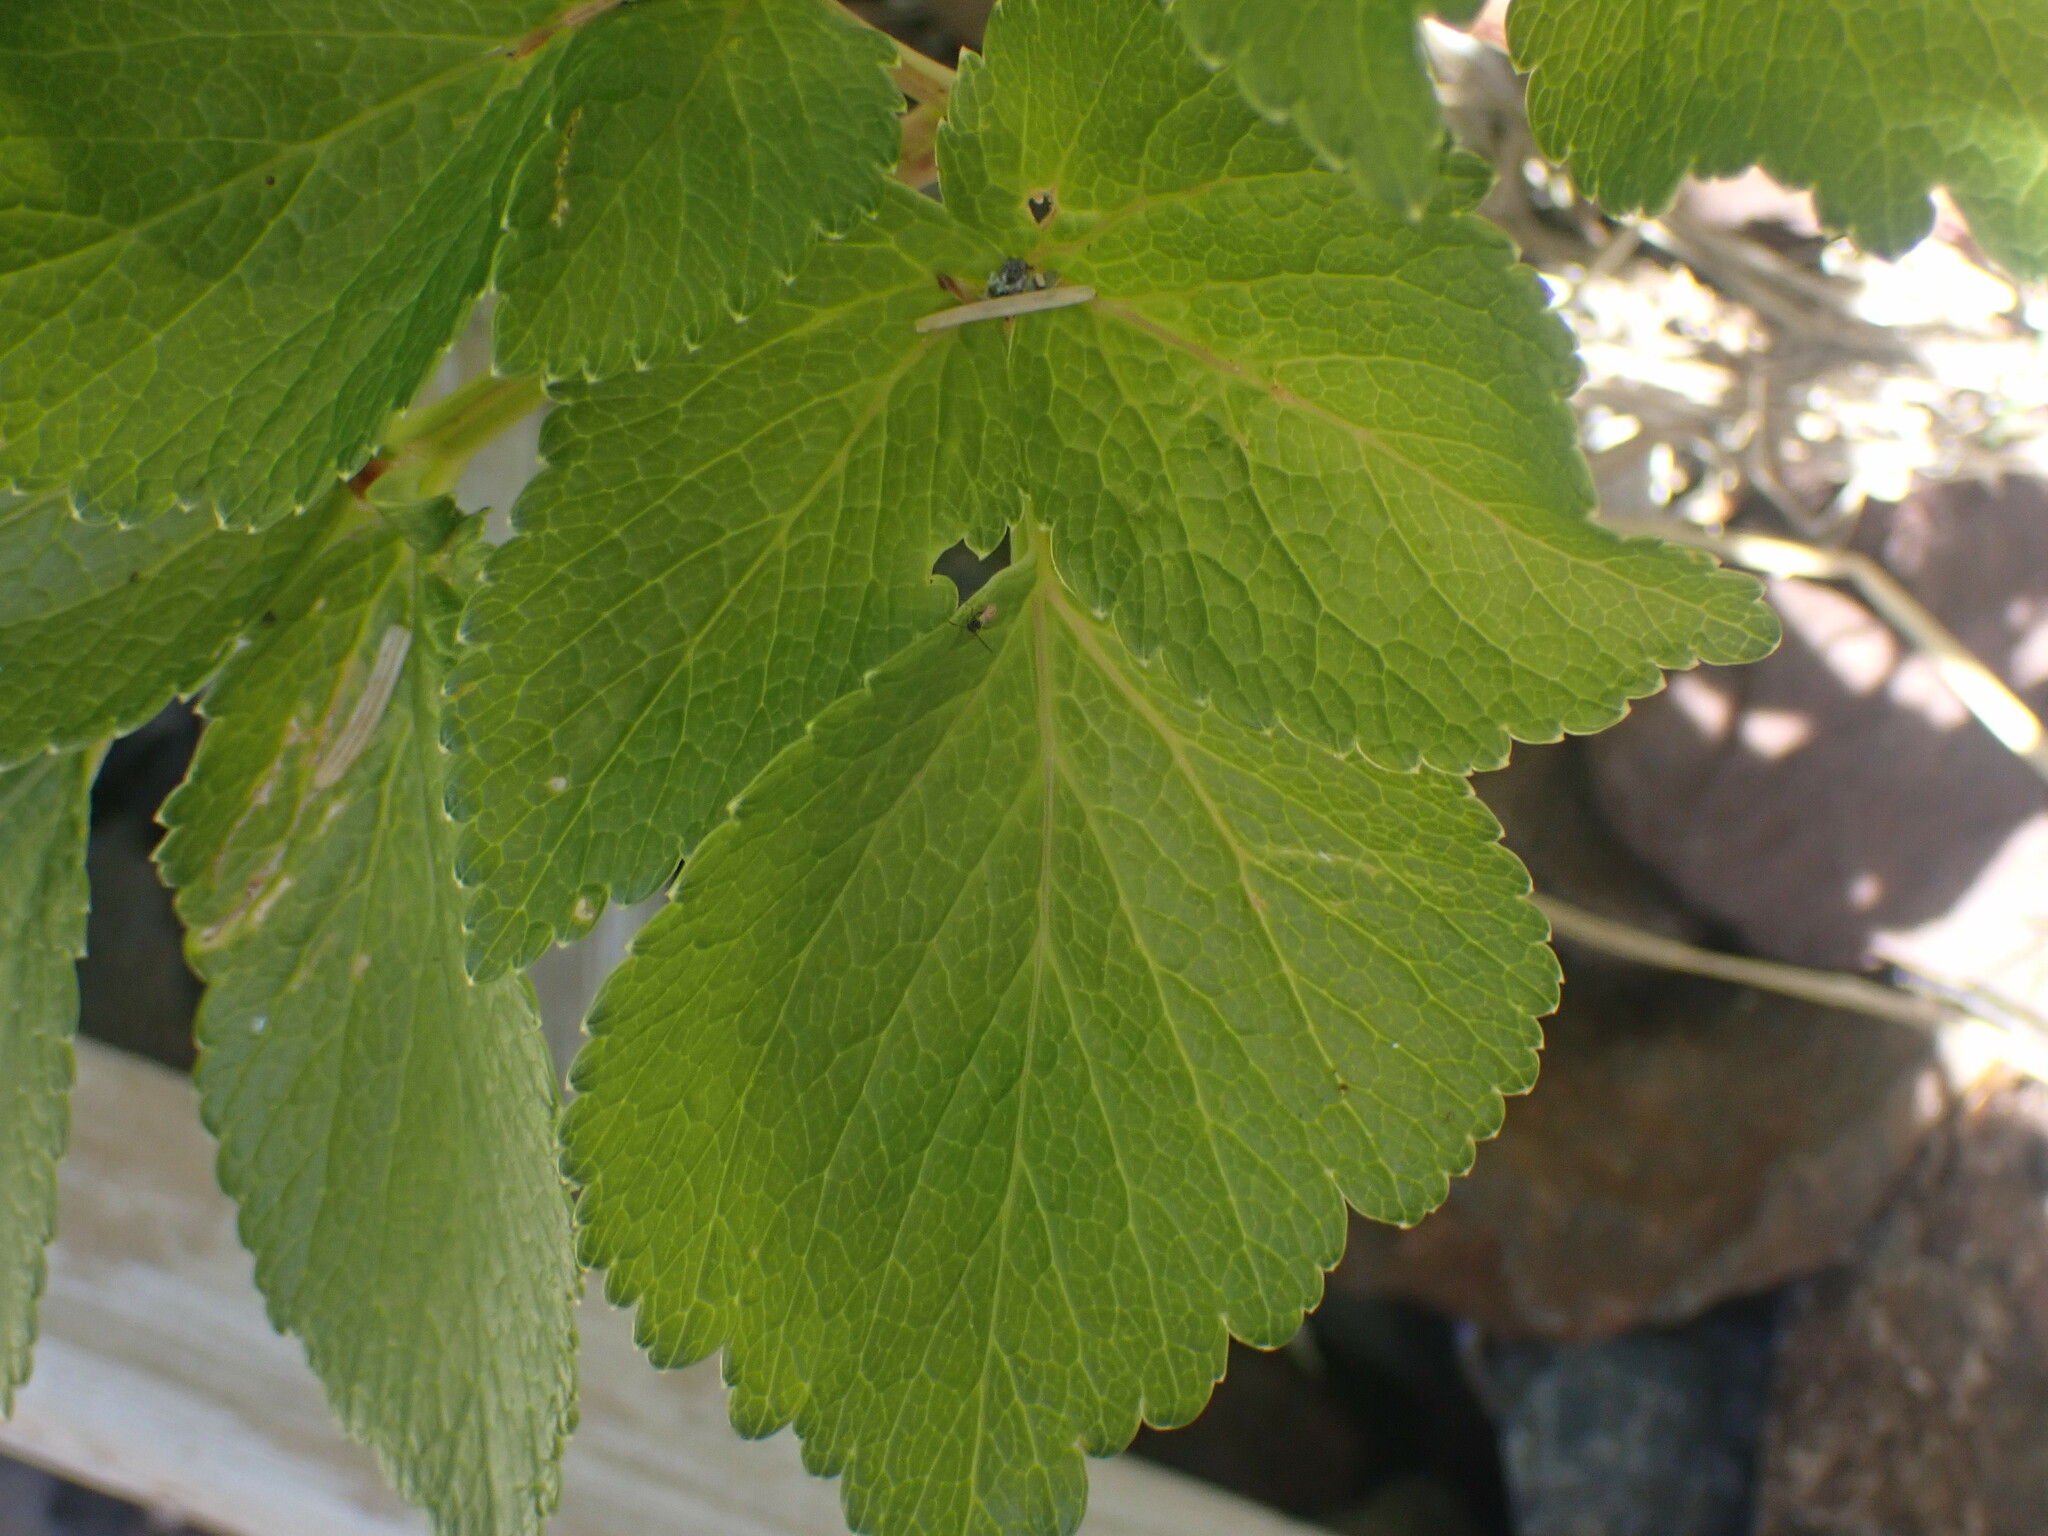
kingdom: Plantae
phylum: Tracheophyta
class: Magnoliopsida
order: Apiales
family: Apiaceae
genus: Angelica
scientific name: Angelica lucida
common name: Seabeach angelica
